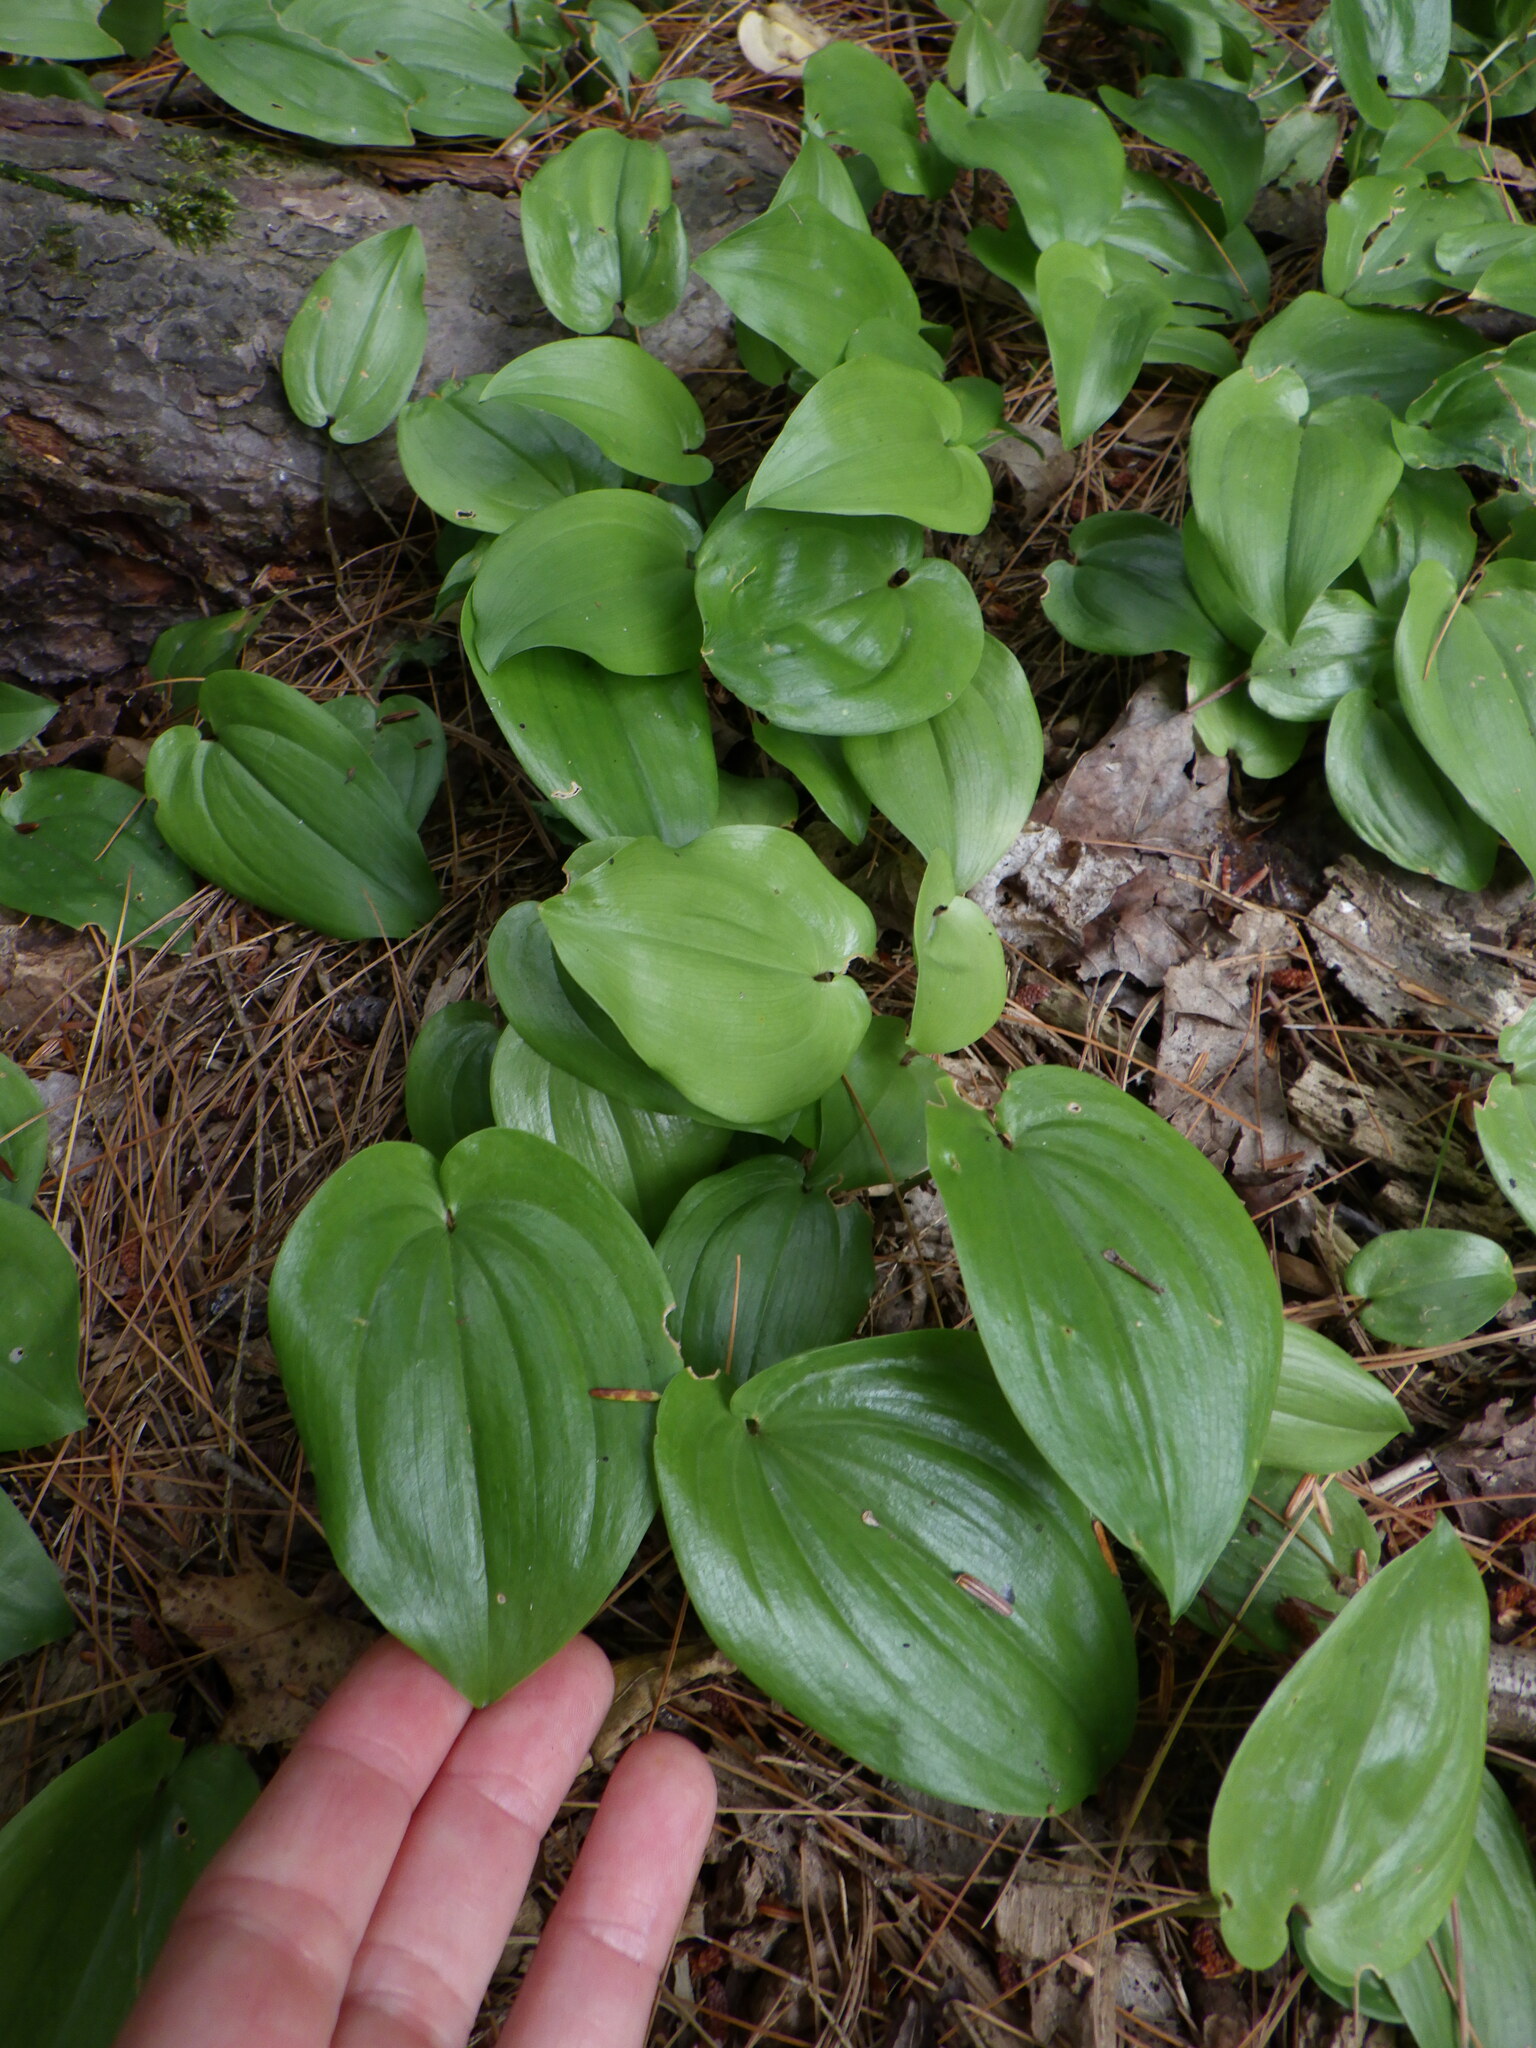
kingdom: Plantae
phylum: Tracheophyta
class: Liliopsida
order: Asparagales
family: Asparagaceae
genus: Maianthemum
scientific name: Maianthemum canadense
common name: False lily-of-the-valley
